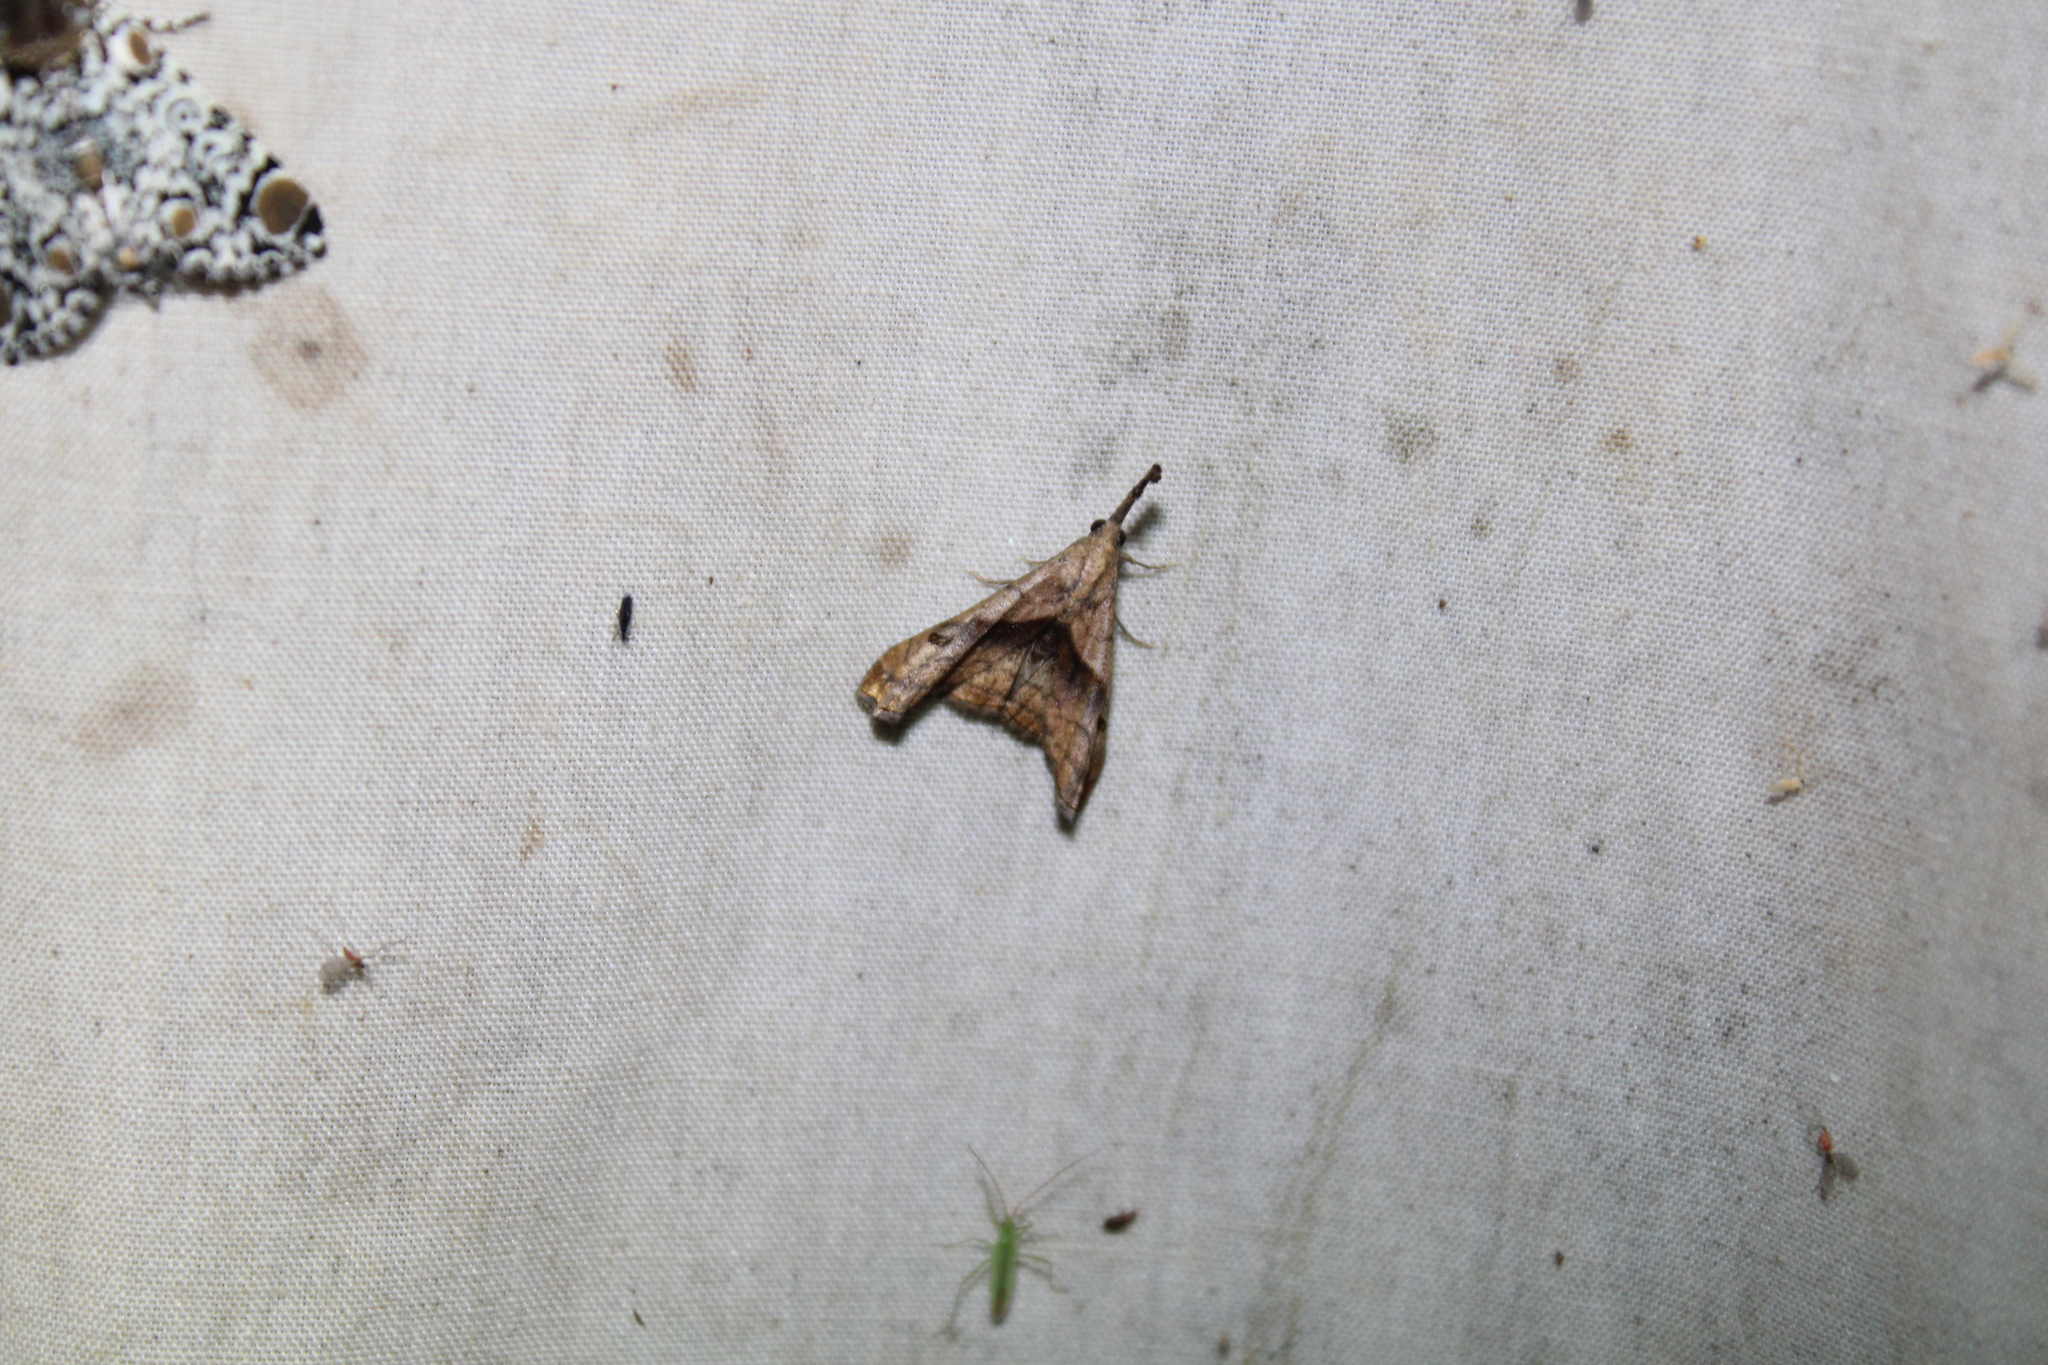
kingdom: Animalia
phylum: Arthropoda
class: Insecta
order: Lepidoptera
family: Erebidae
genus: Palthis
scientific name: Palthis angulalis
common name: Dark-spotted palthis moth
